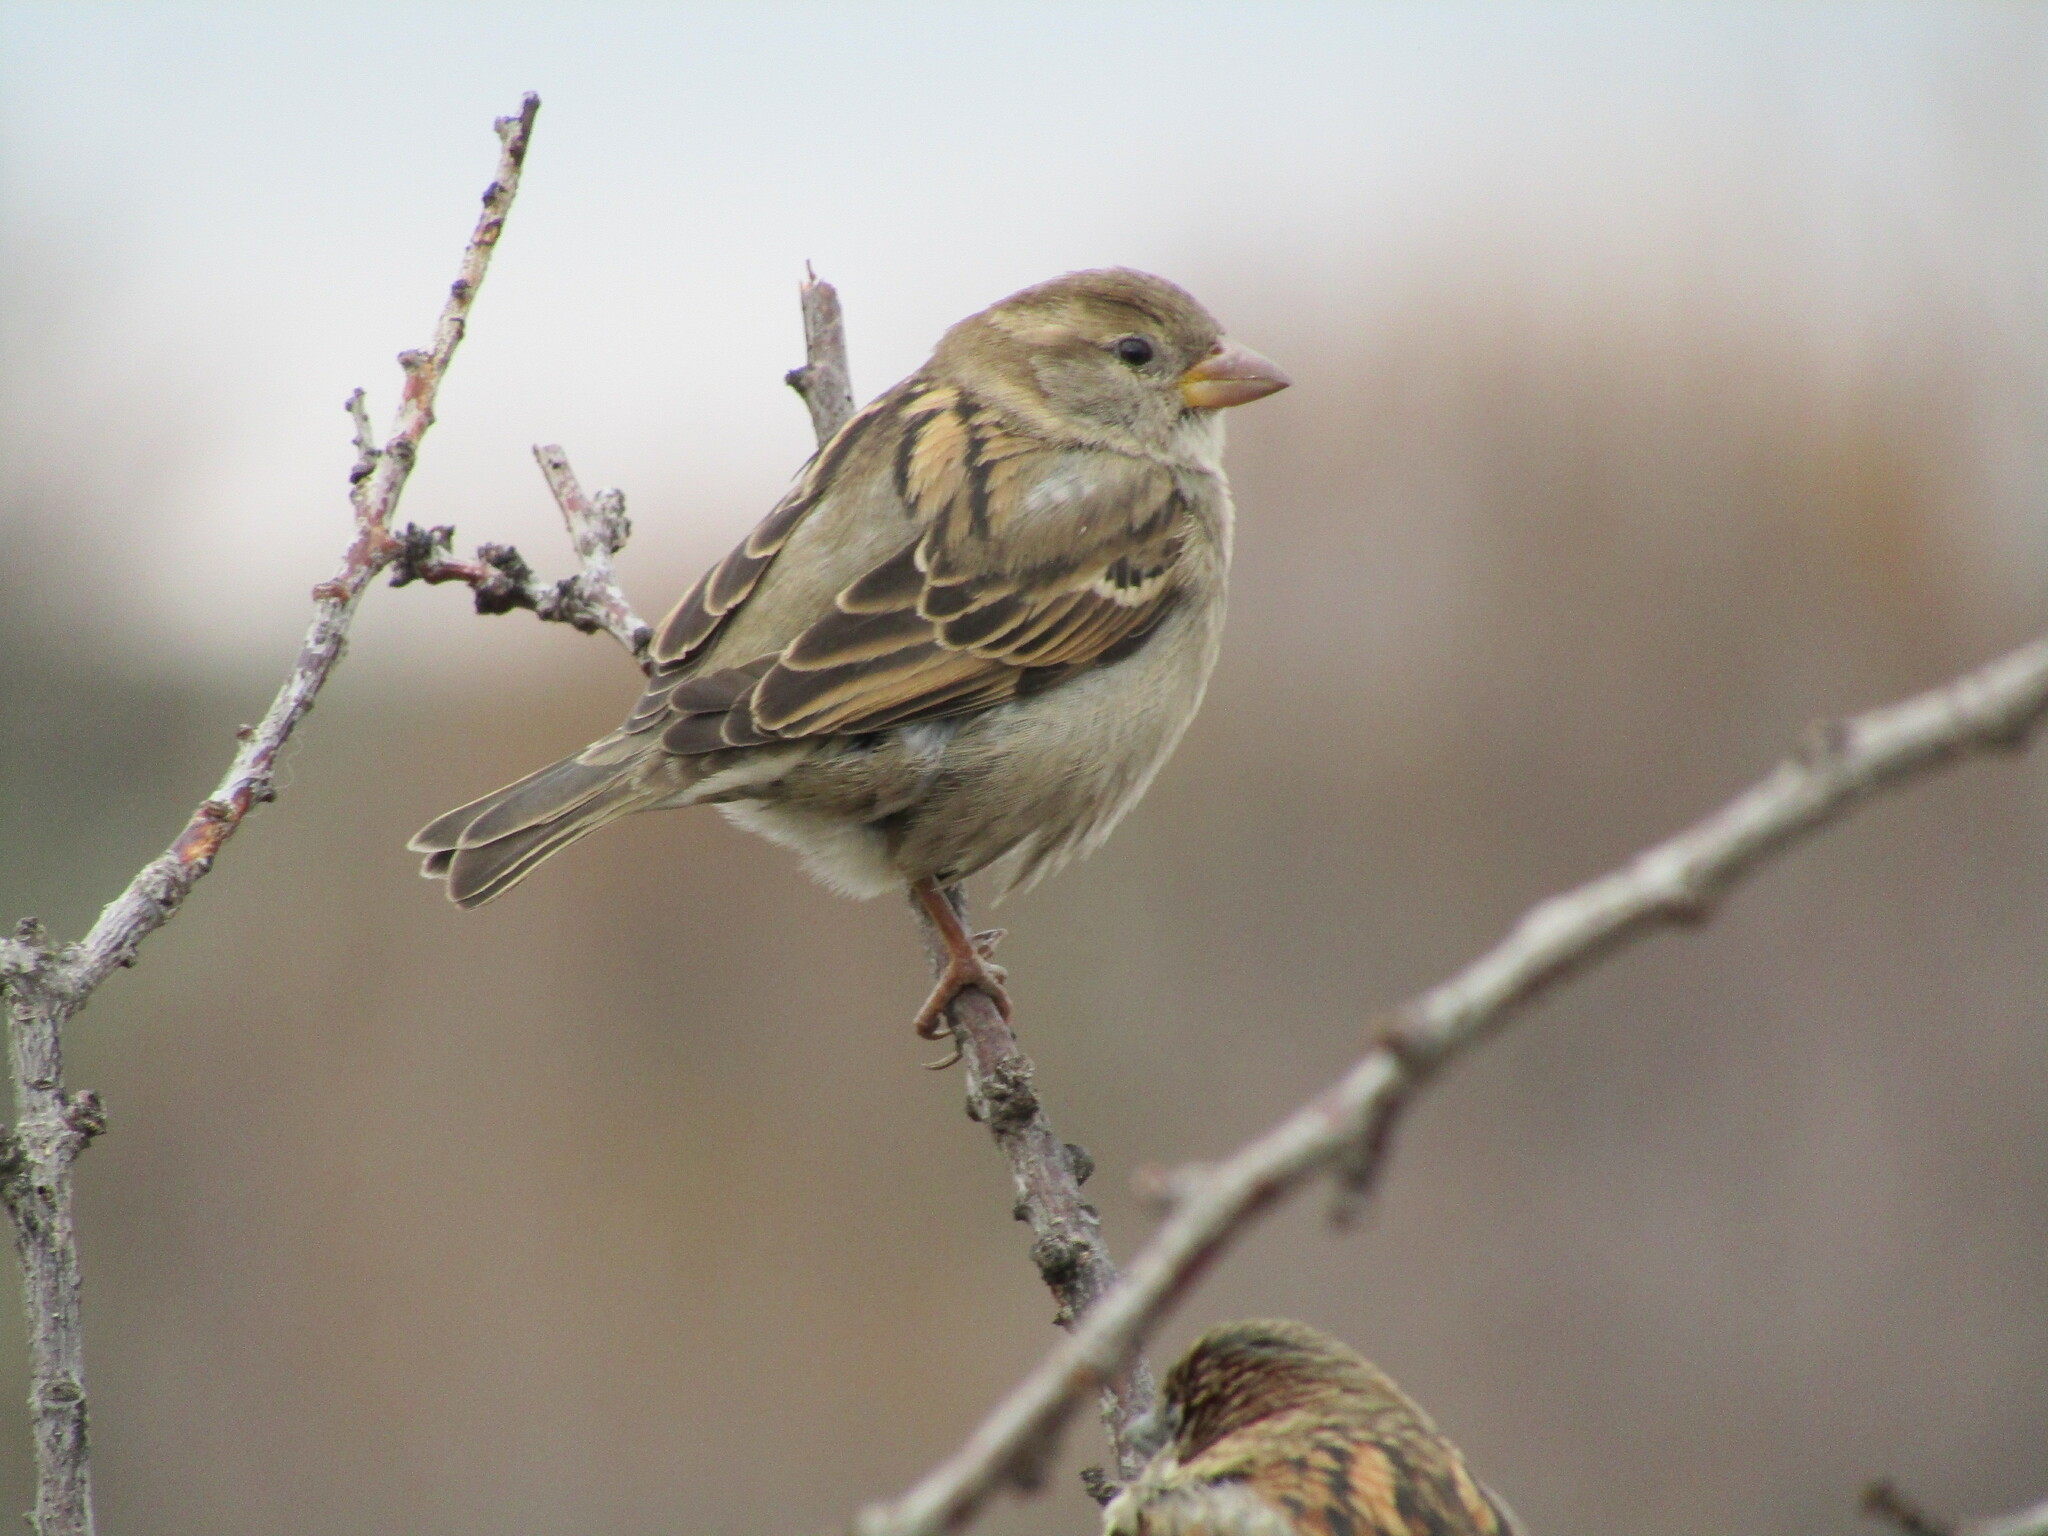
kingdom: Animalia
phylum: Chordata
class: Aves
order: Passeriformes
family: Passeridae
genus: Passer
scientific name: Passer domesticus
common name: House sparrow
